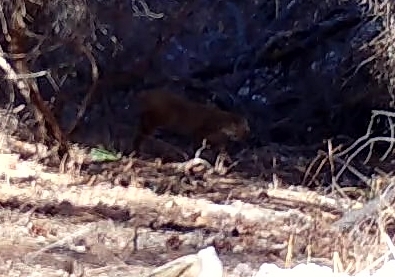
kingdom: Animalia
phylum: Chordata
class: Mammalia
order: Carnivora
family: Felidae
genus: Lynx
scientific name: Lynx rufus
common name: Bobcat
